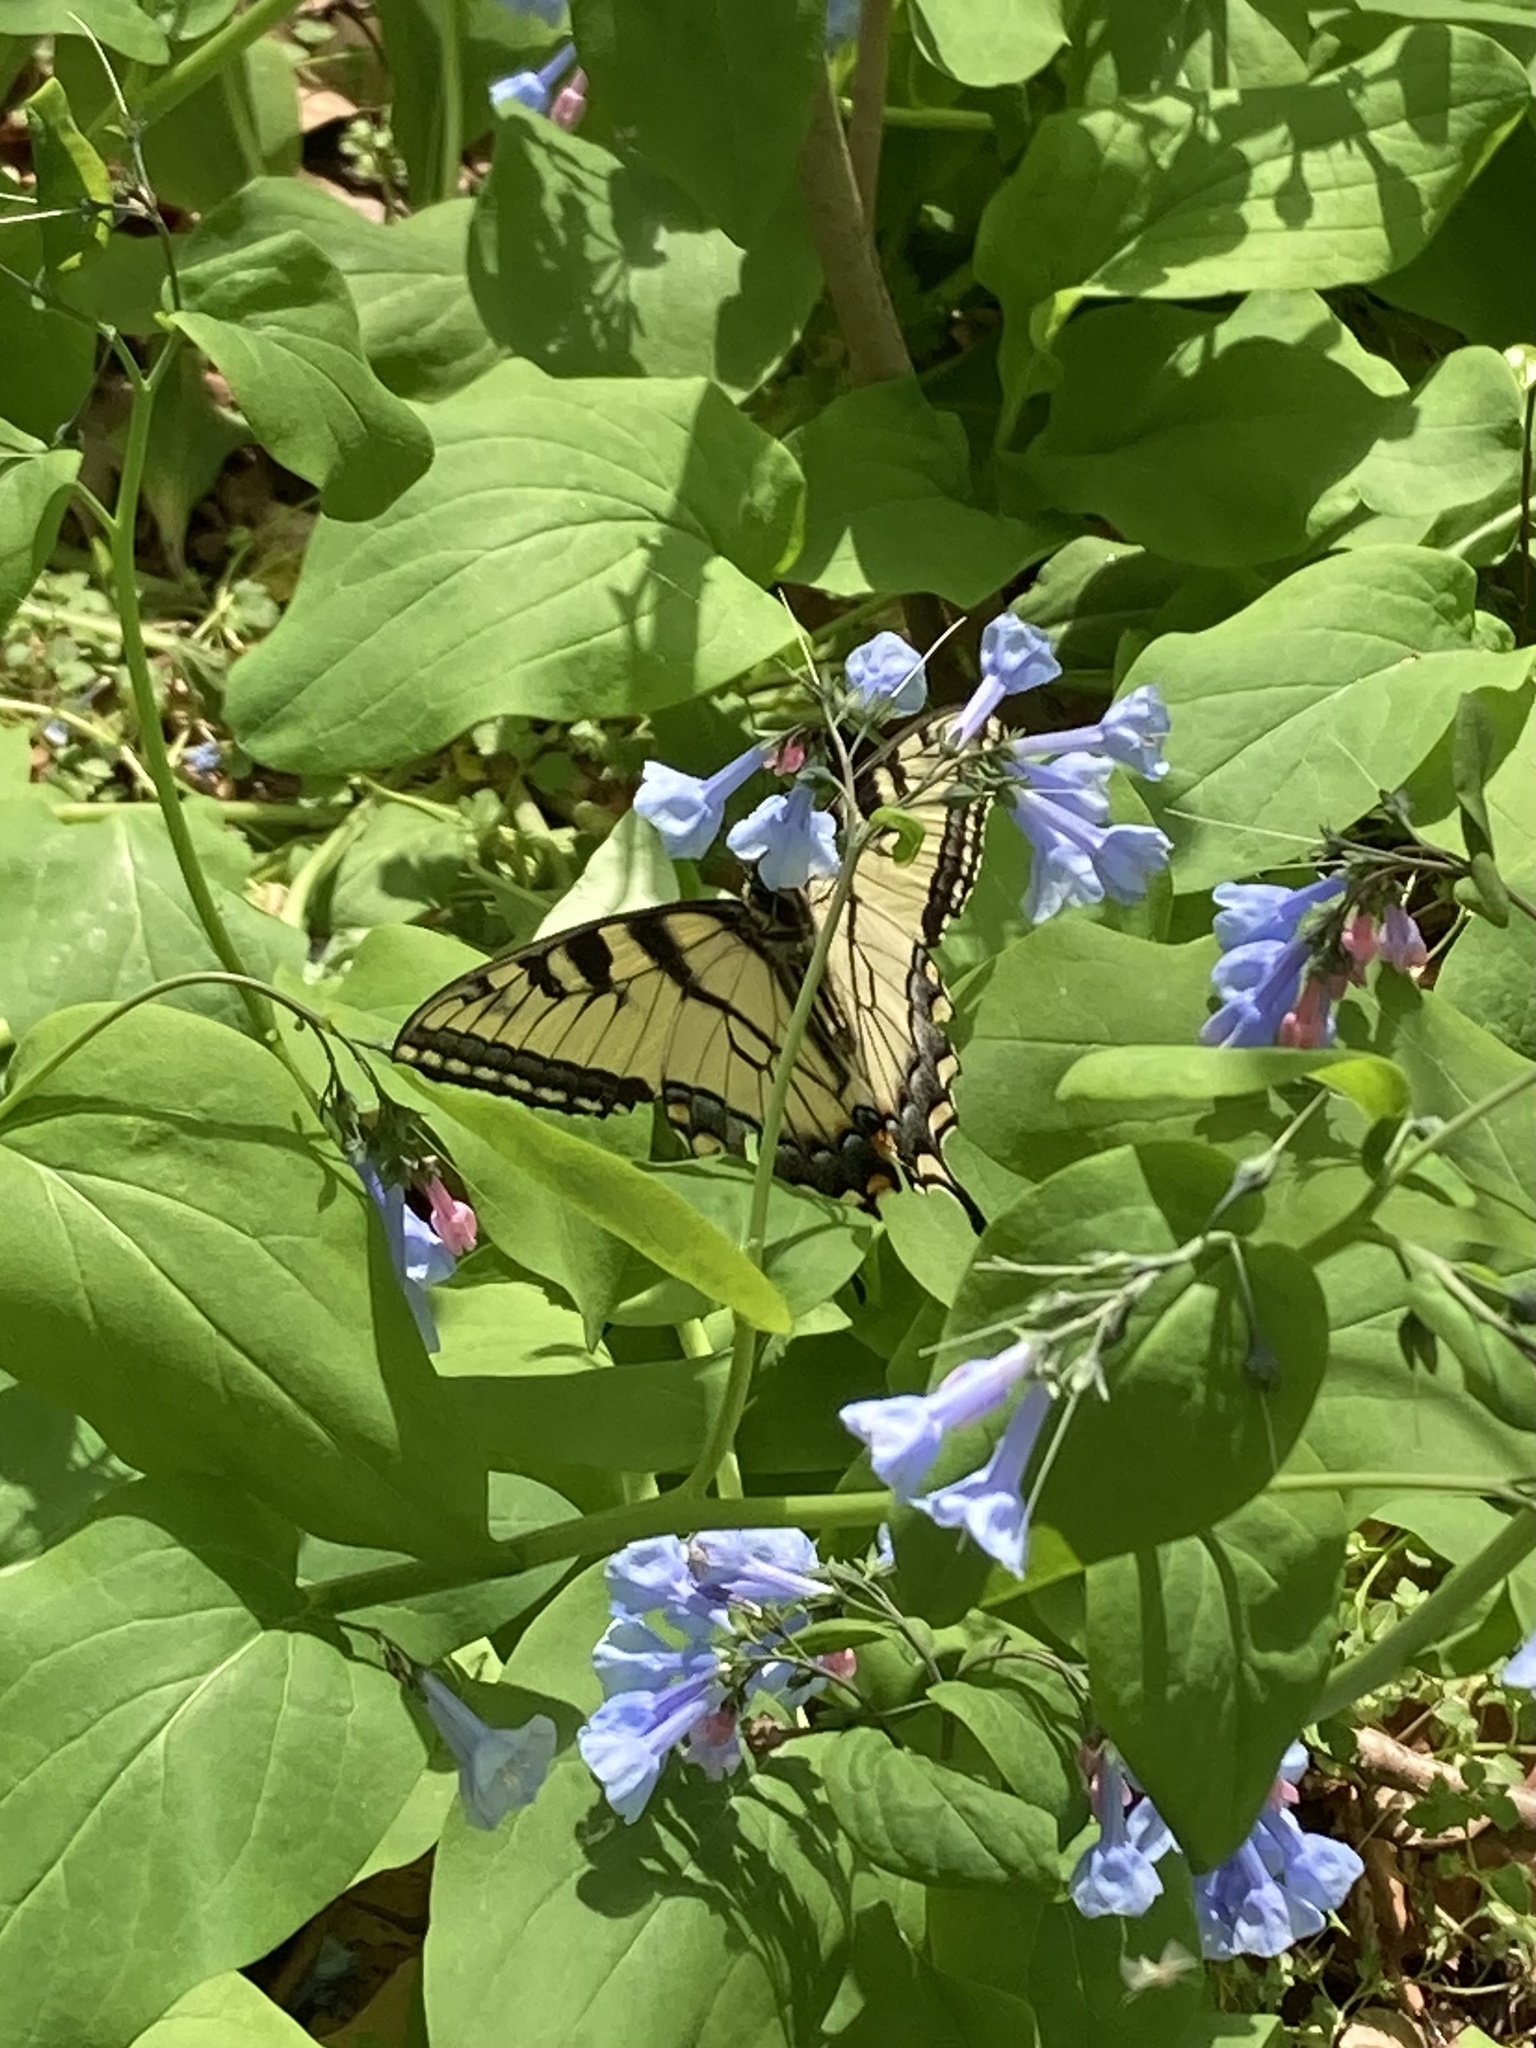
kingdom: Animalia
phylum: Arthropoda
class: Insecta
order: Lepidoptera
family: Papilionidae
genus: Papilio
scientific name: Papilio glaucus
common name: Tiger swallowtail
